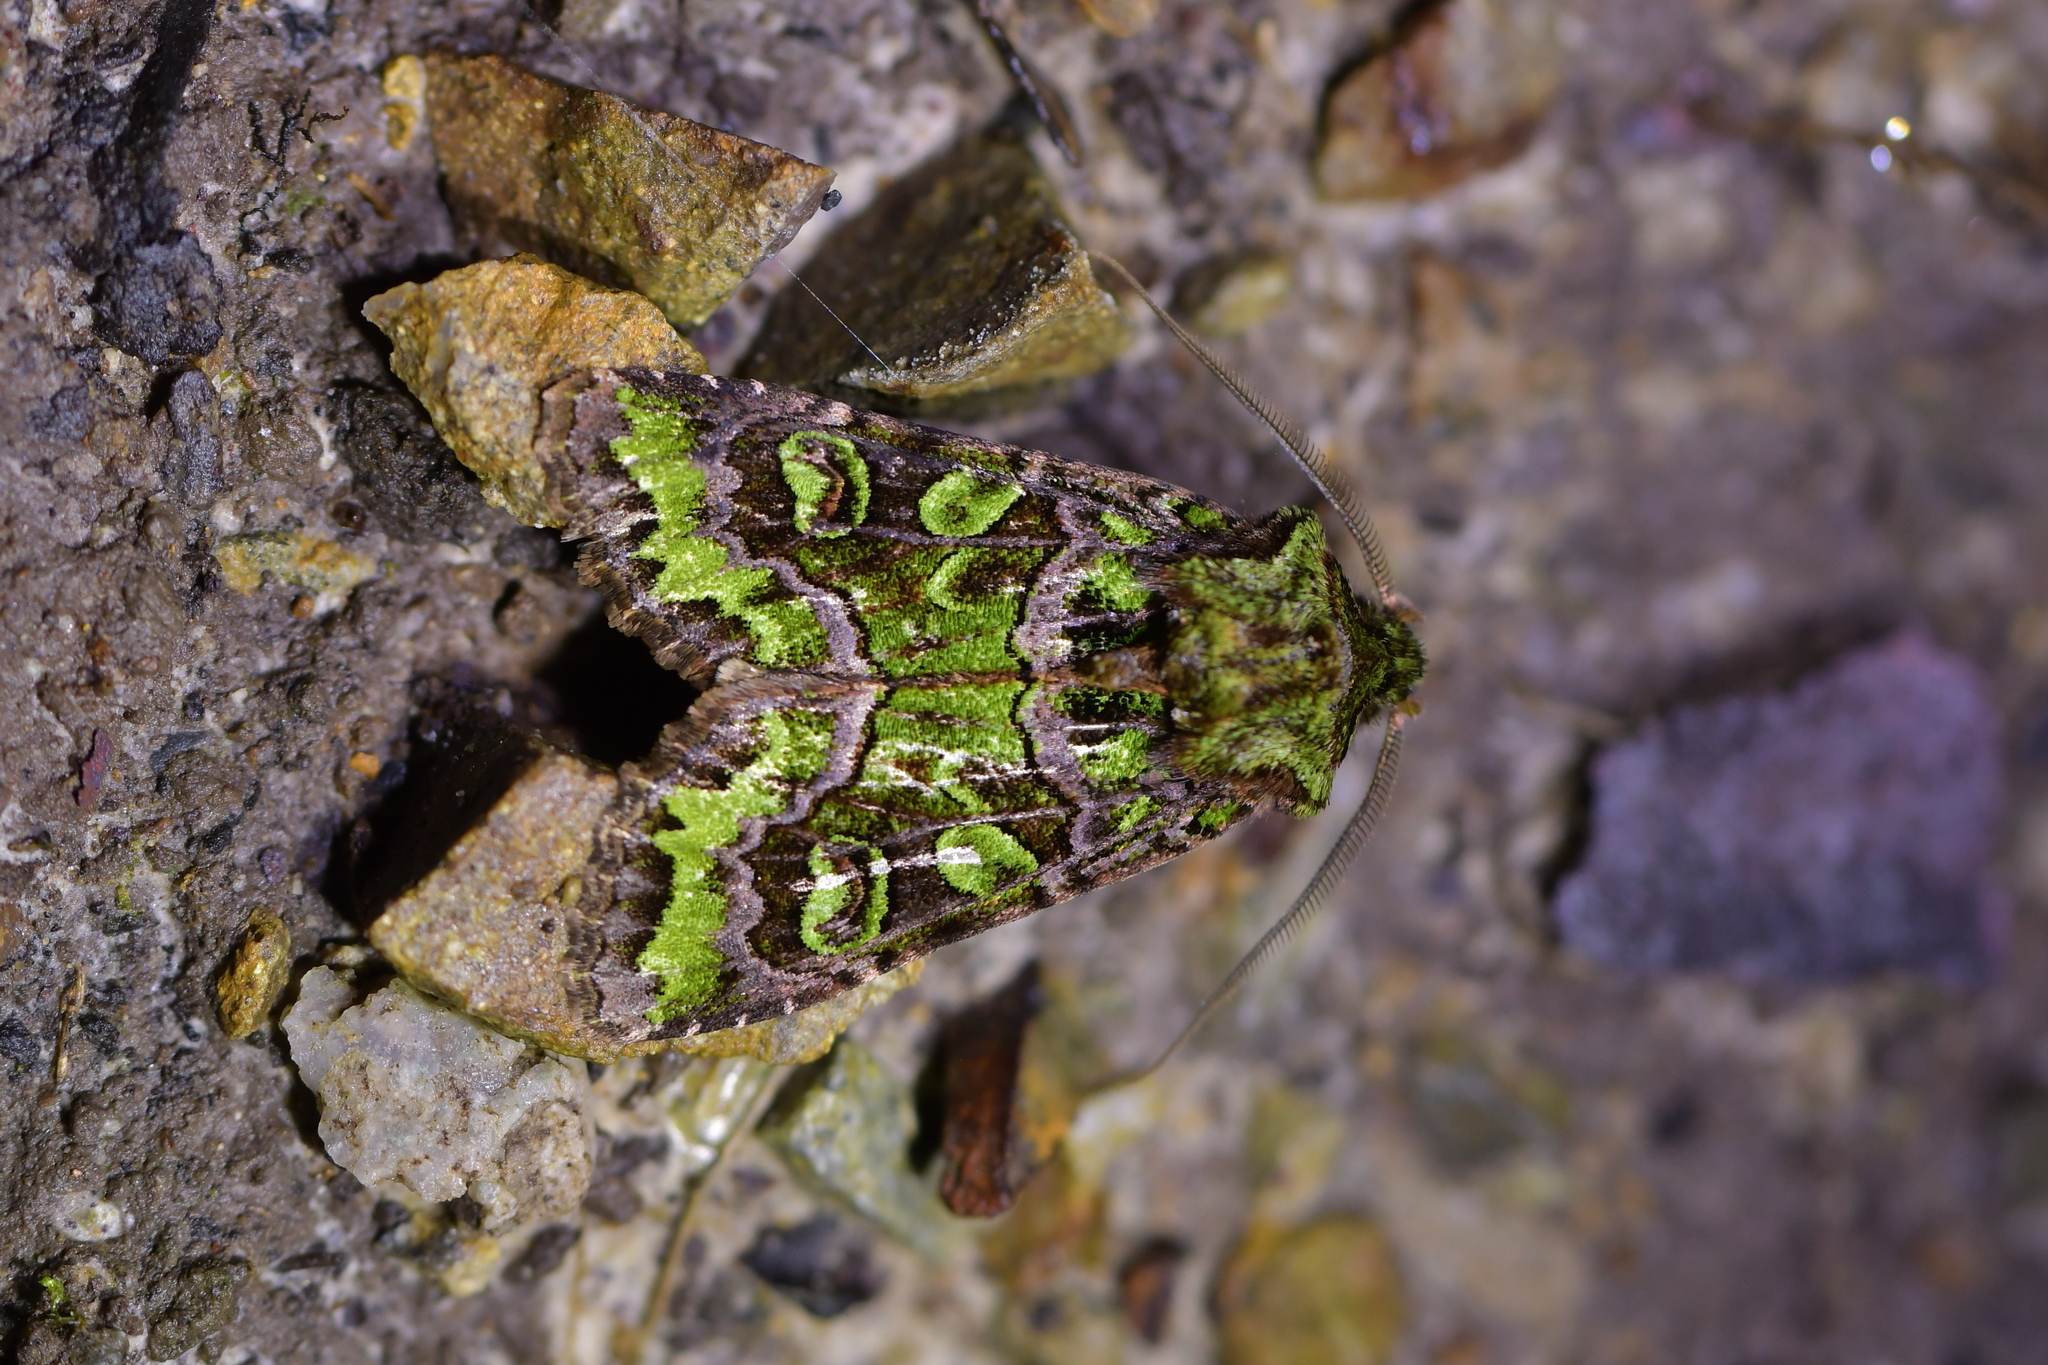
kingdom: Animalia
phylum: Arthropoda
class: Insecta
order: Lepidoptera
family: Noctuidae
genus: Ichneutica
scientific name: Ichneutica chlorodonta
